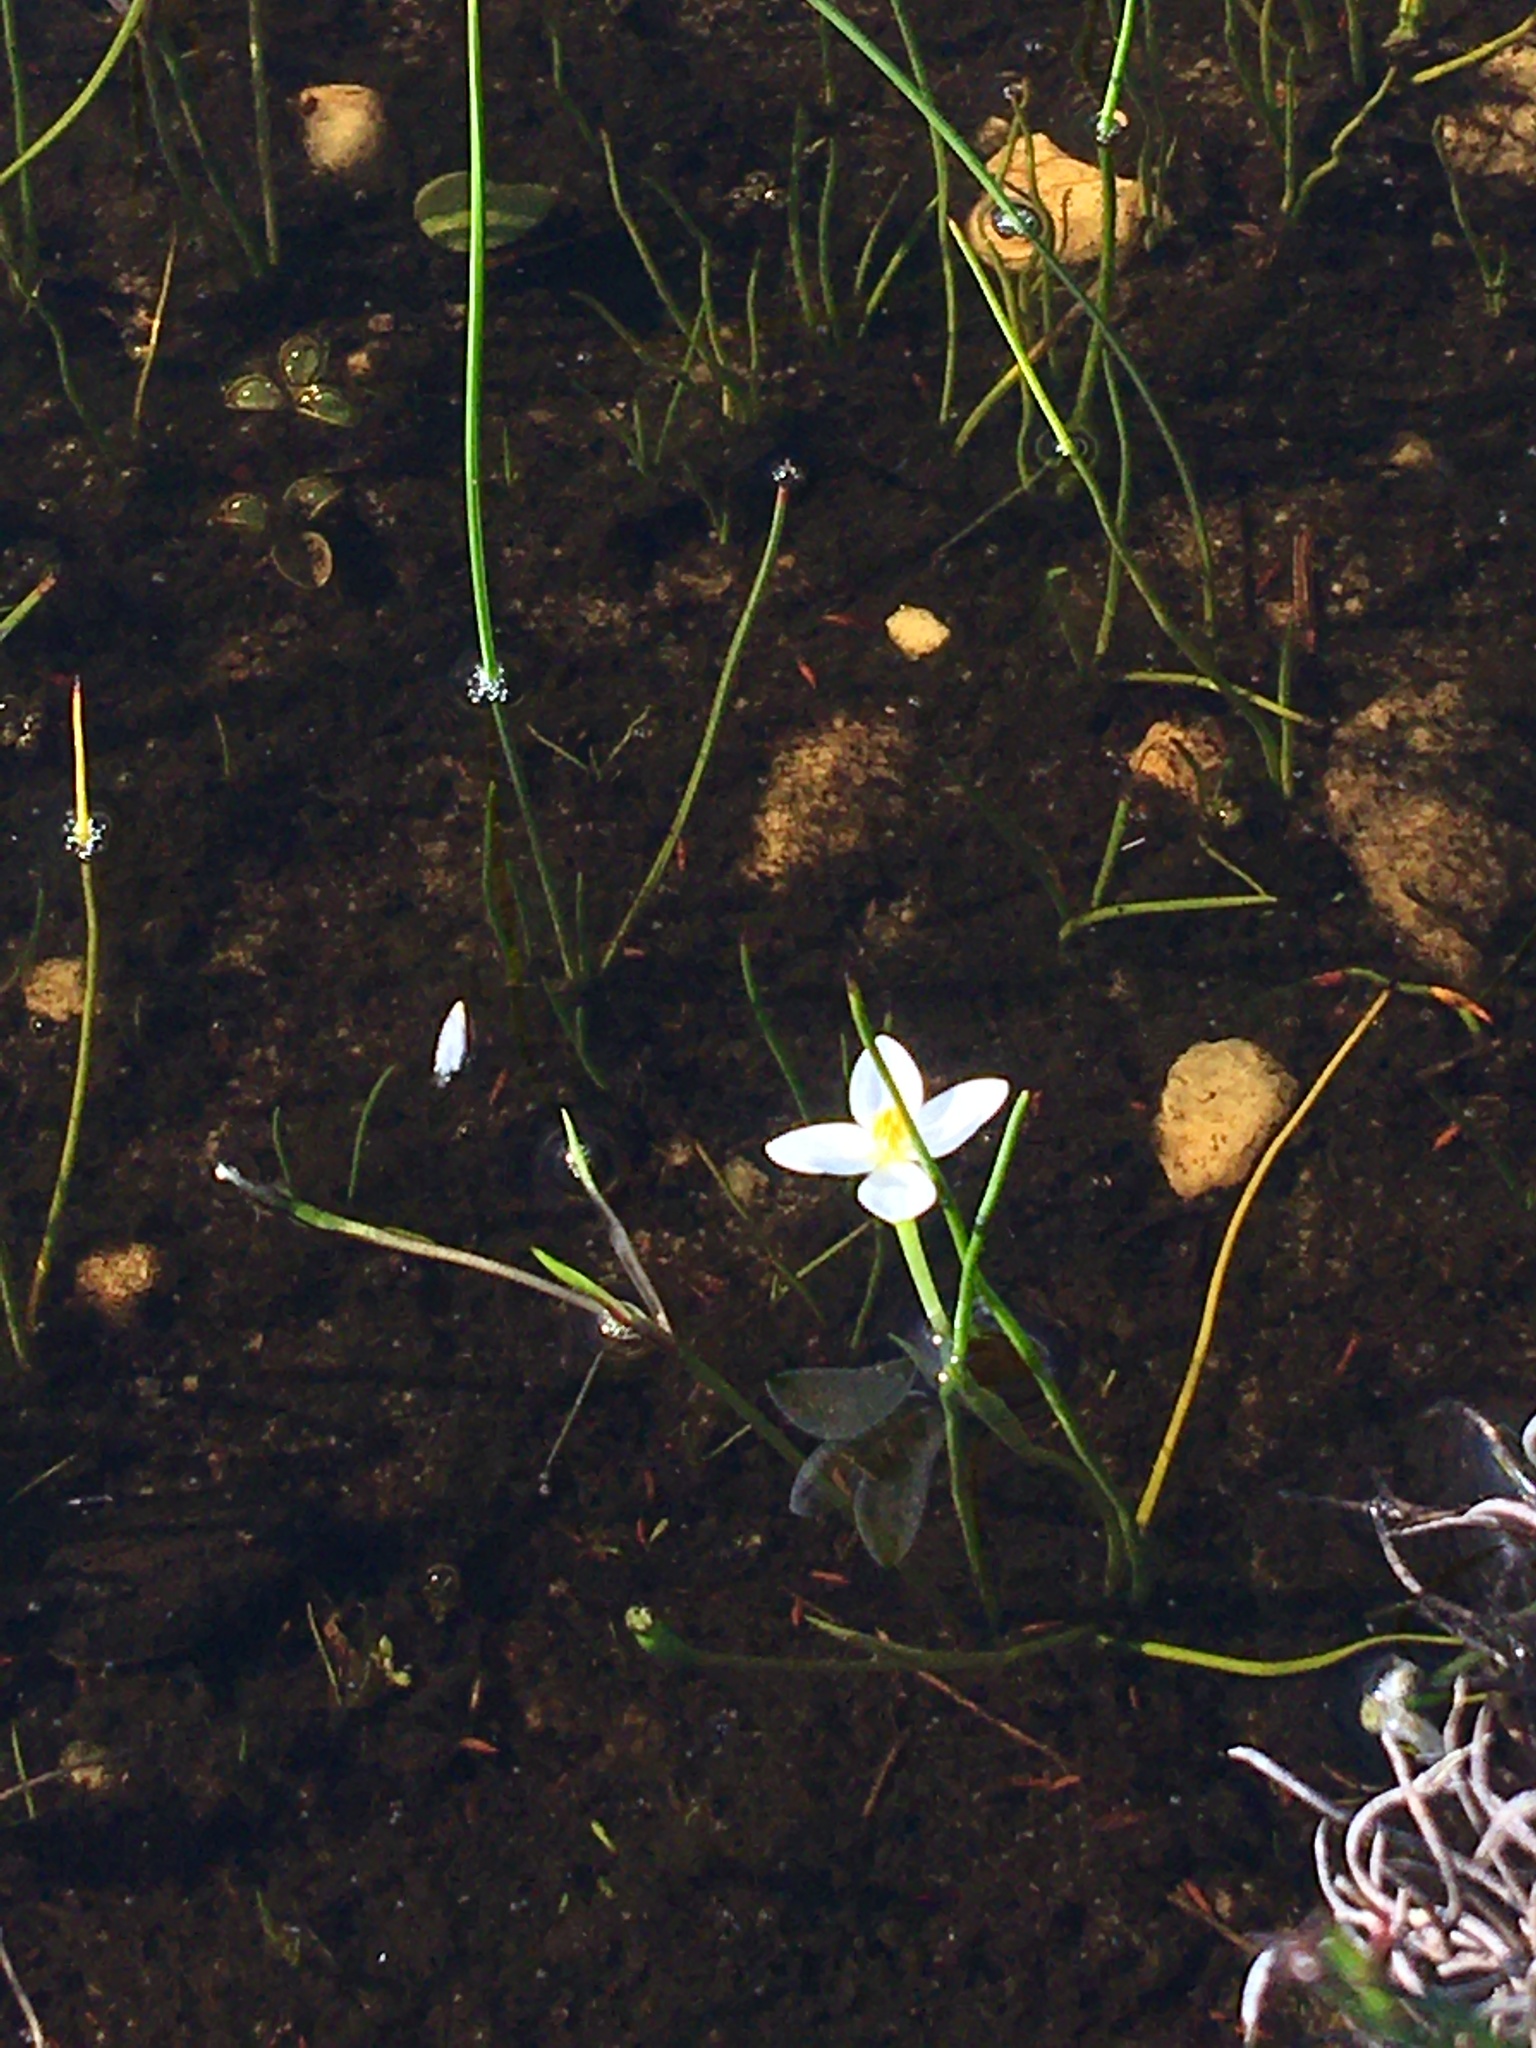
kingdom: Plantae
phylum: Tracheophyta
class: Liliopsida
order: Asparagales
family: Hypoxidaceae
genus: Pauridia
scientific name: Pauridia aquatica
